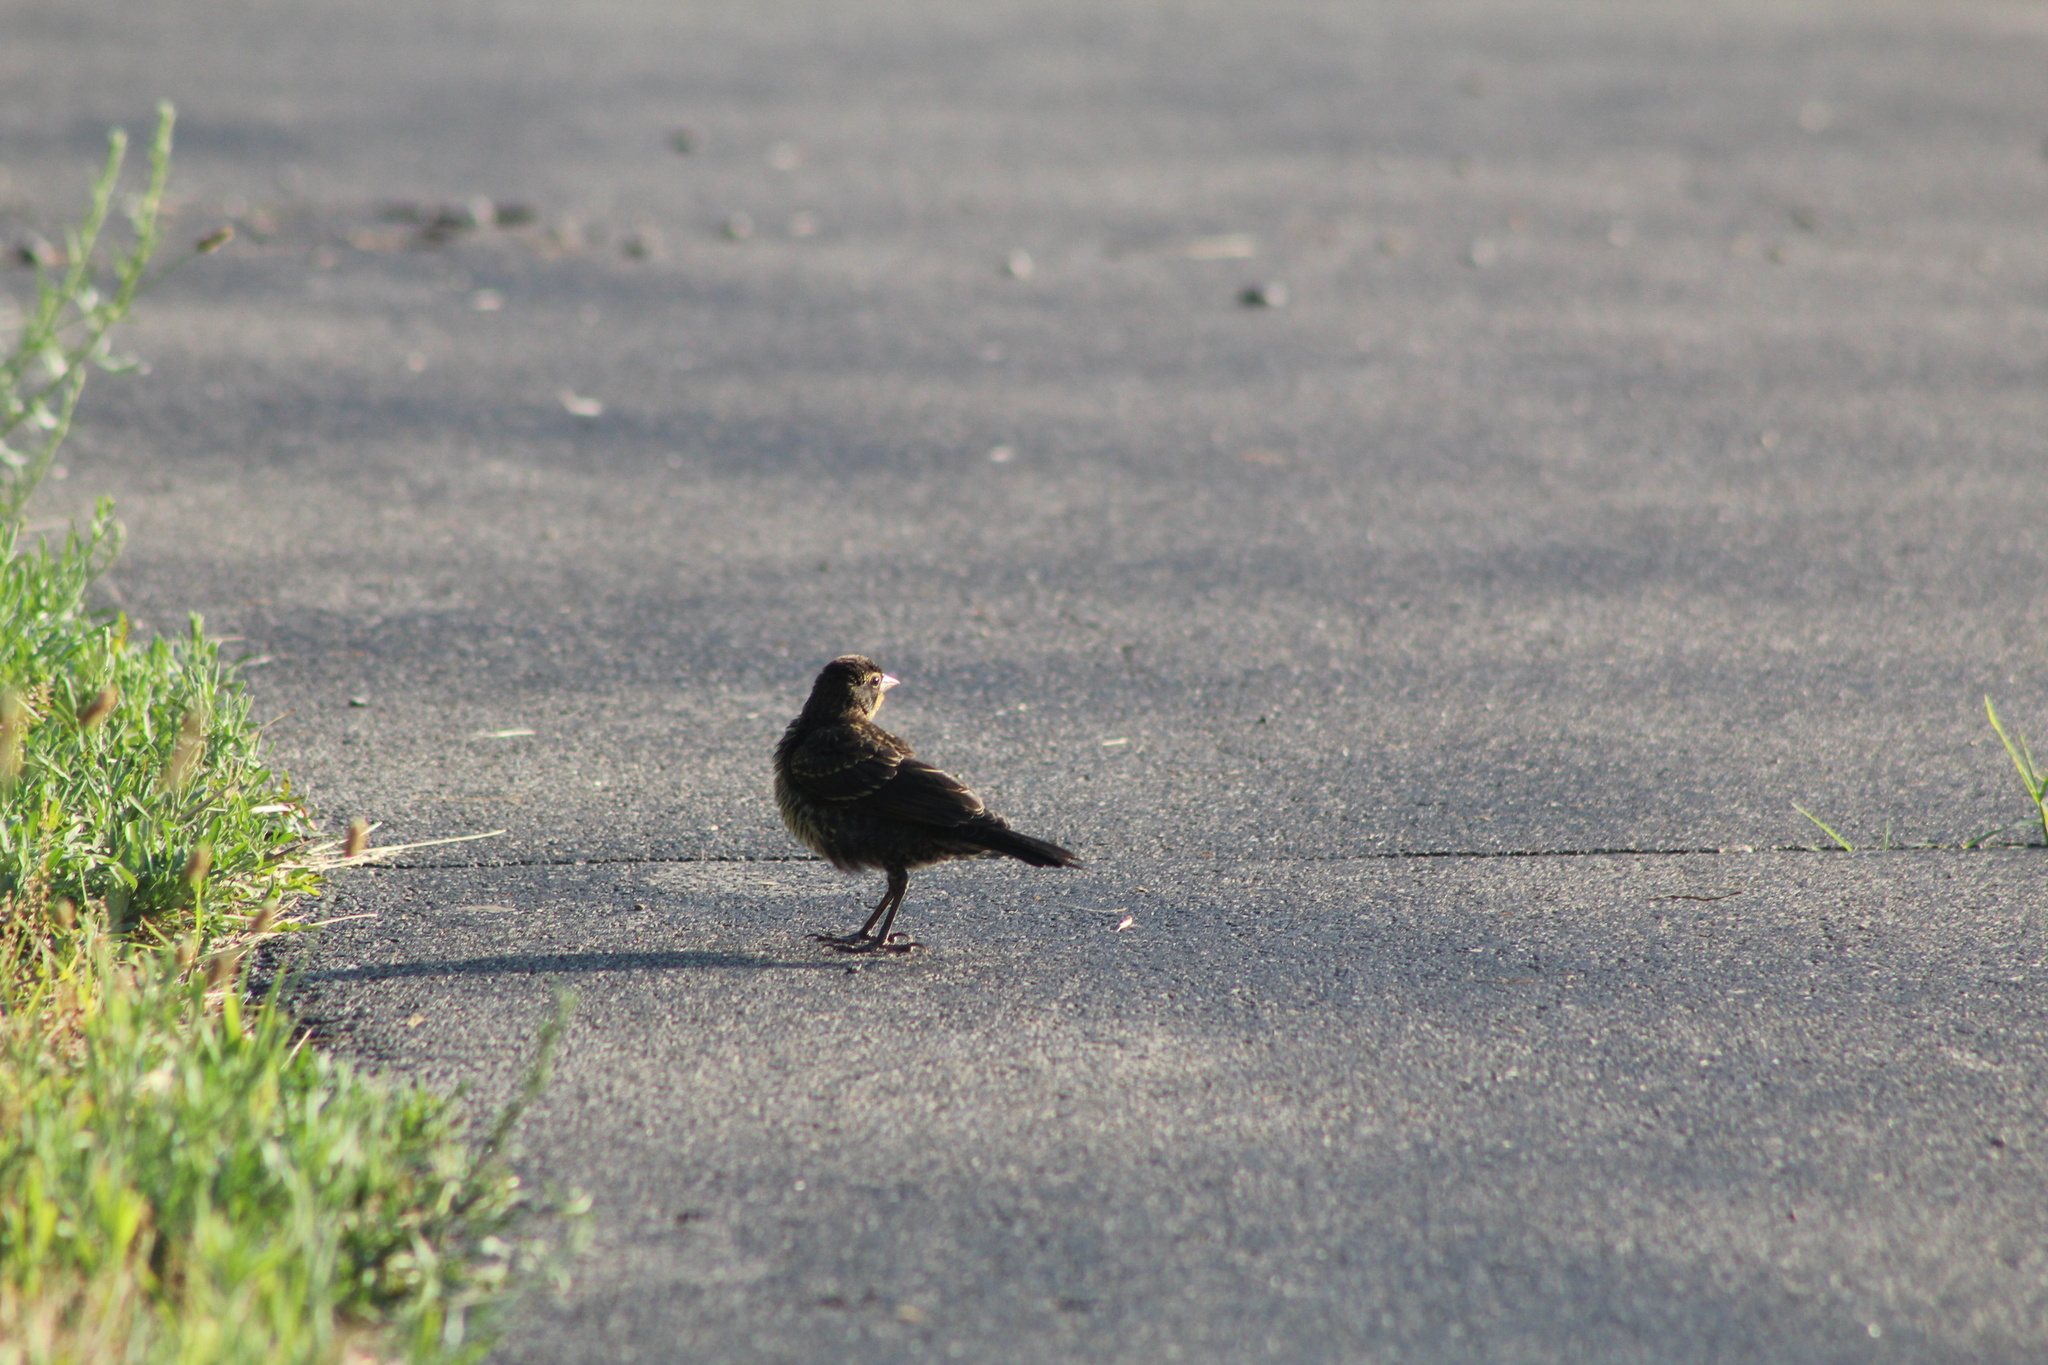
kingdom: Animalia
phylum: Chordata
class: Aves
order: Passeriformes
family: Icteridae
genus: Agelaius
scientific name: Agelaius phoeniceus
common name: Red-winged blackbird
